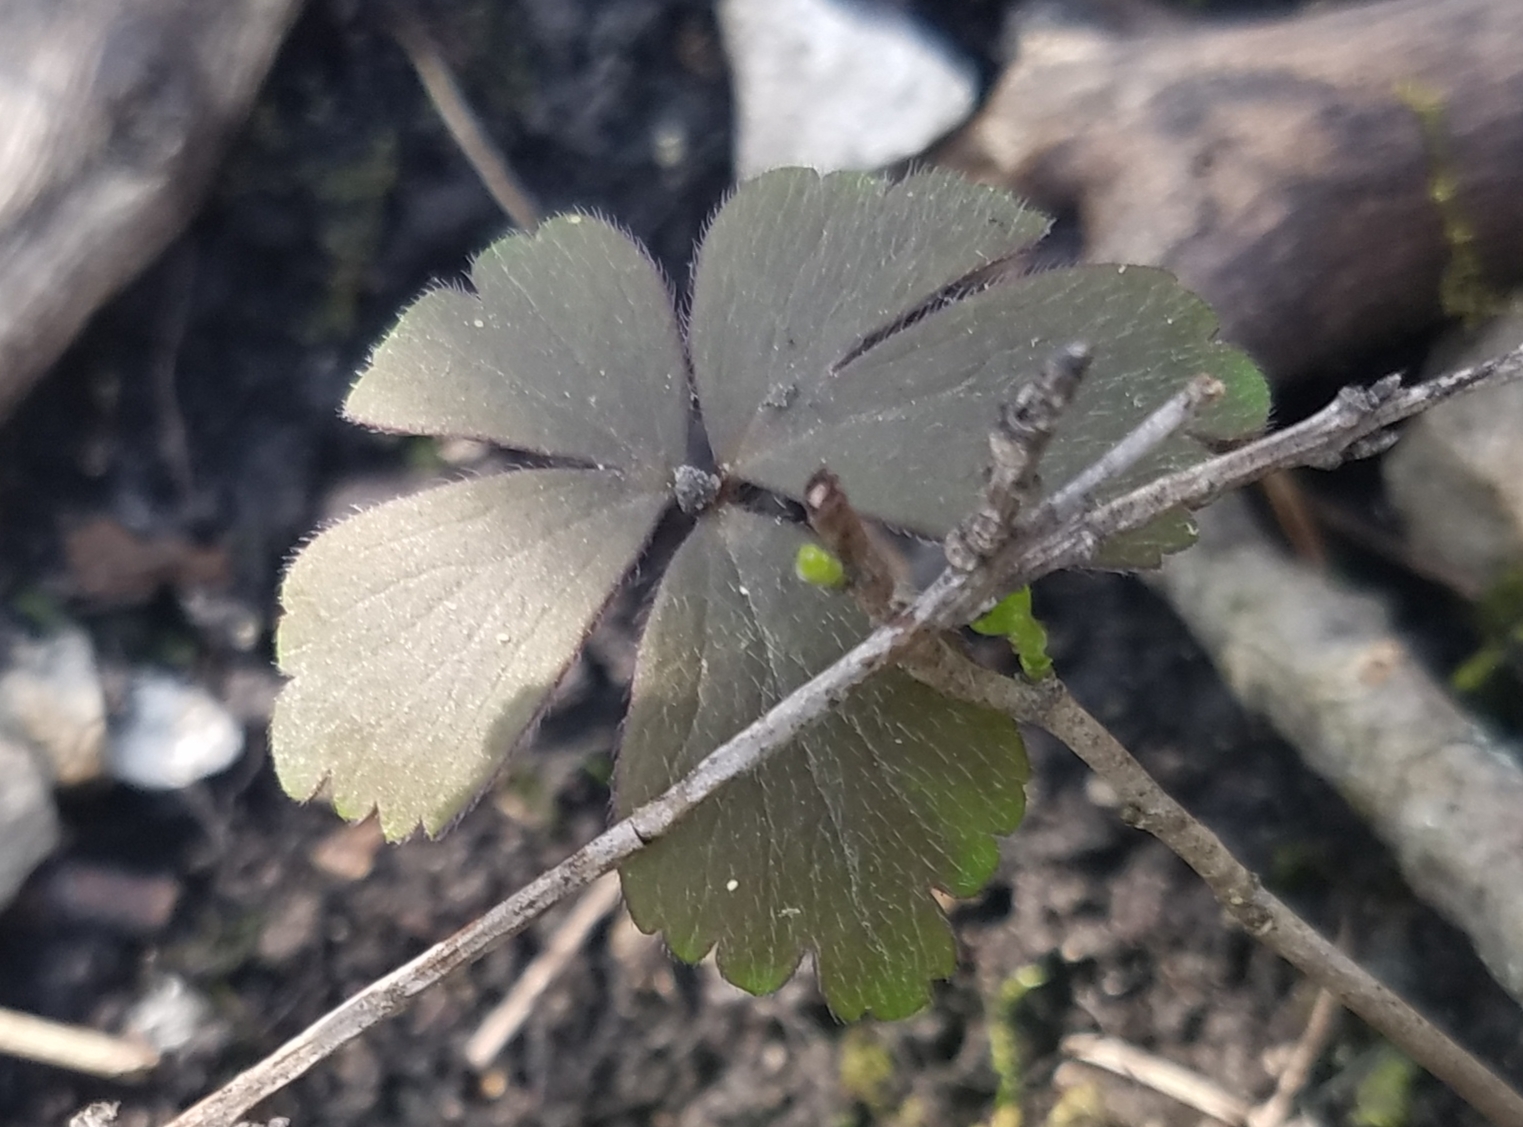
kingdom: Plantae
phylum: Tracheophyta
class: Magnoliopsida
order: Ranunculales
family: Ranunculaceae
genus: Anemone
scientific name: Anemone quinquefolia
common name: Wood anemone
